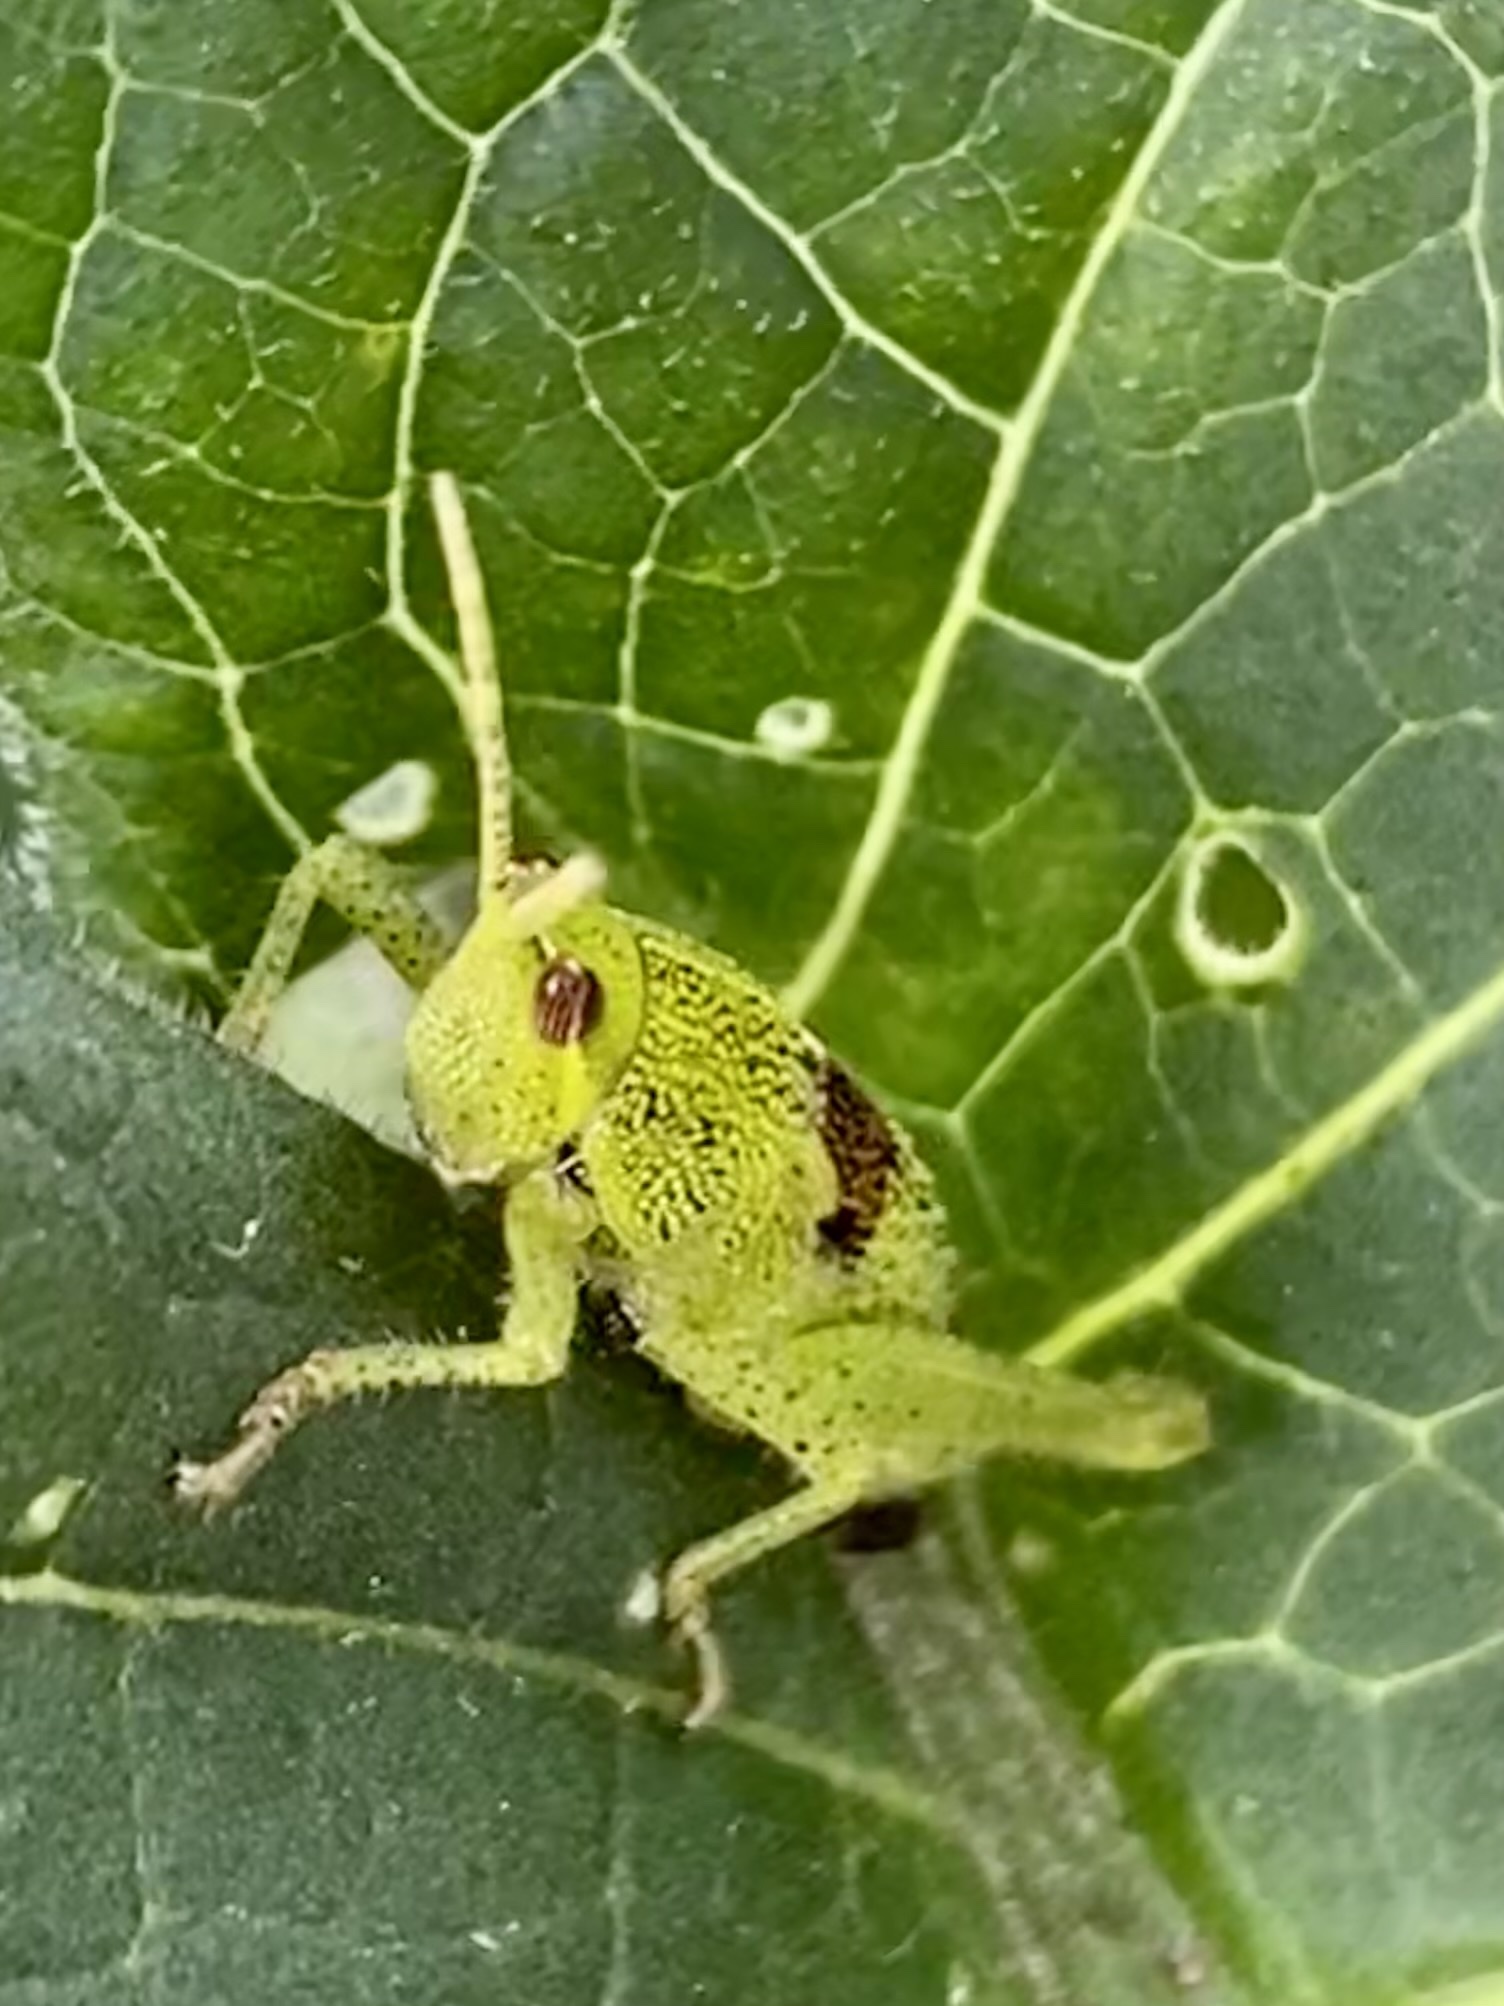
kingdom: Animalia
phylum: Arthropoda
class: Insecta
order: Orthoptera
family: Pyrgomorphidae
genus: Sphenarium
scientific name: Sphenarium
